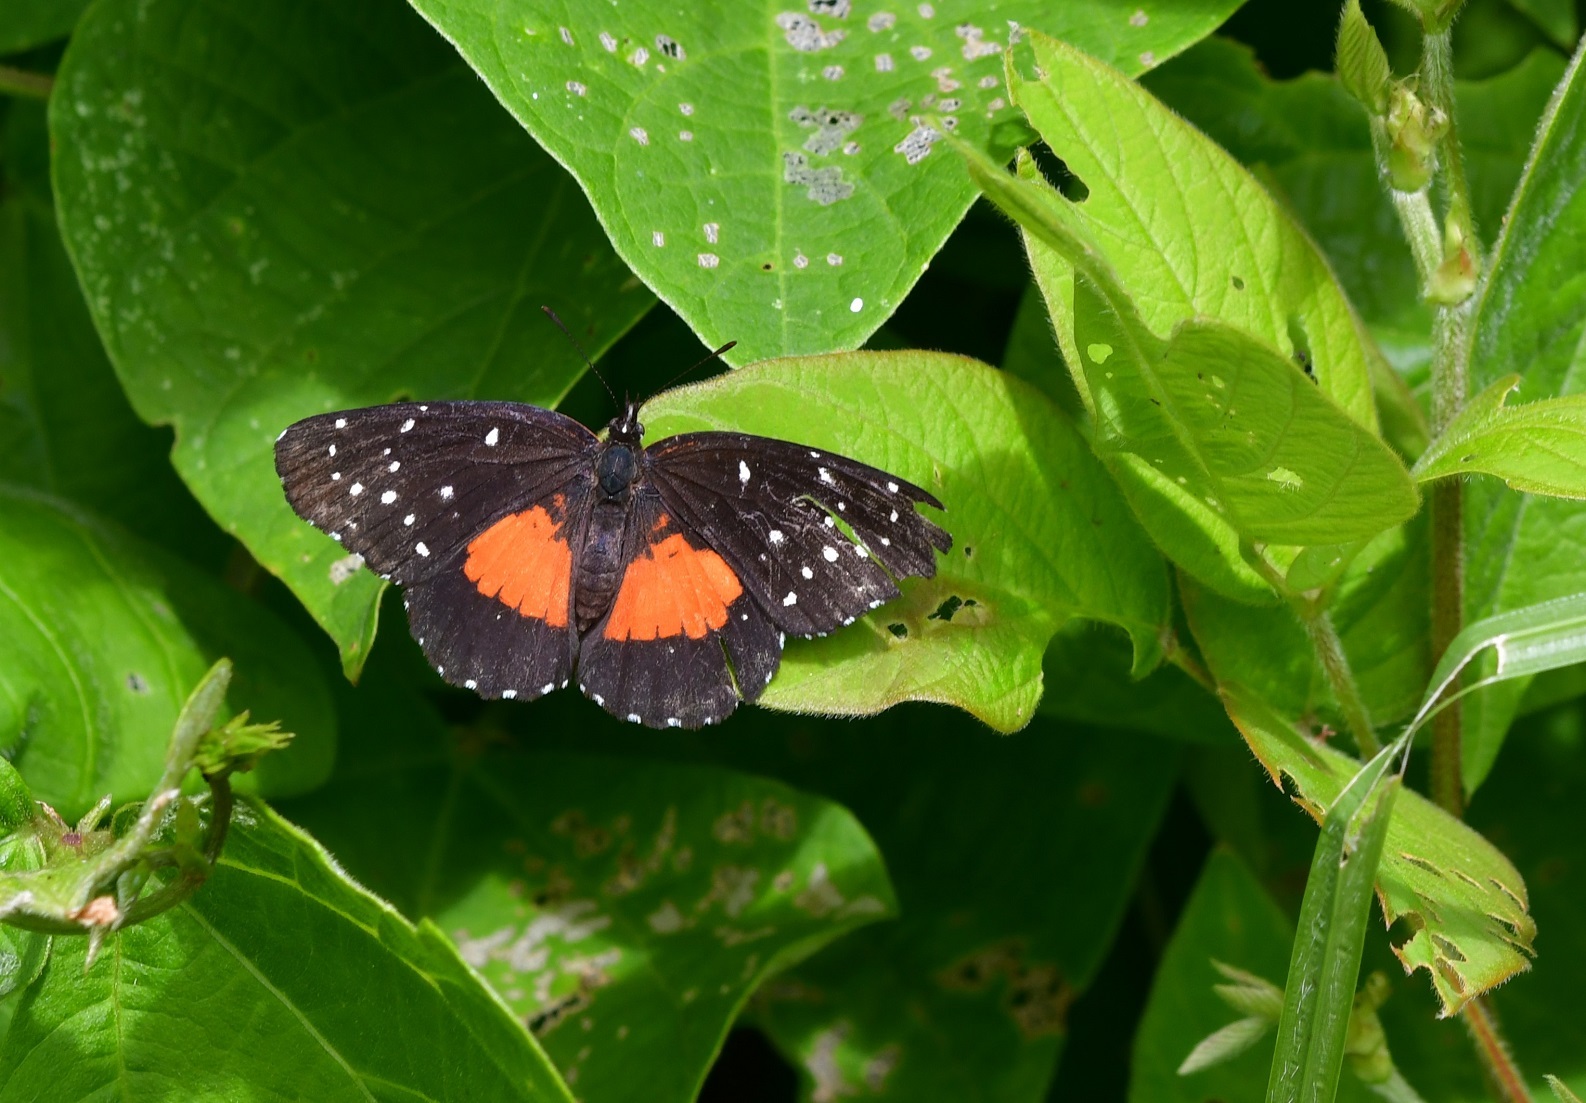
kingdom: Animalia
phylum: Arthropoda
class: Insecta
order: Lepidoptera
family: Nymphalidae
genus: Chlosyne
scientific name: Chlosyne lacinia
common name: Bordered patch
